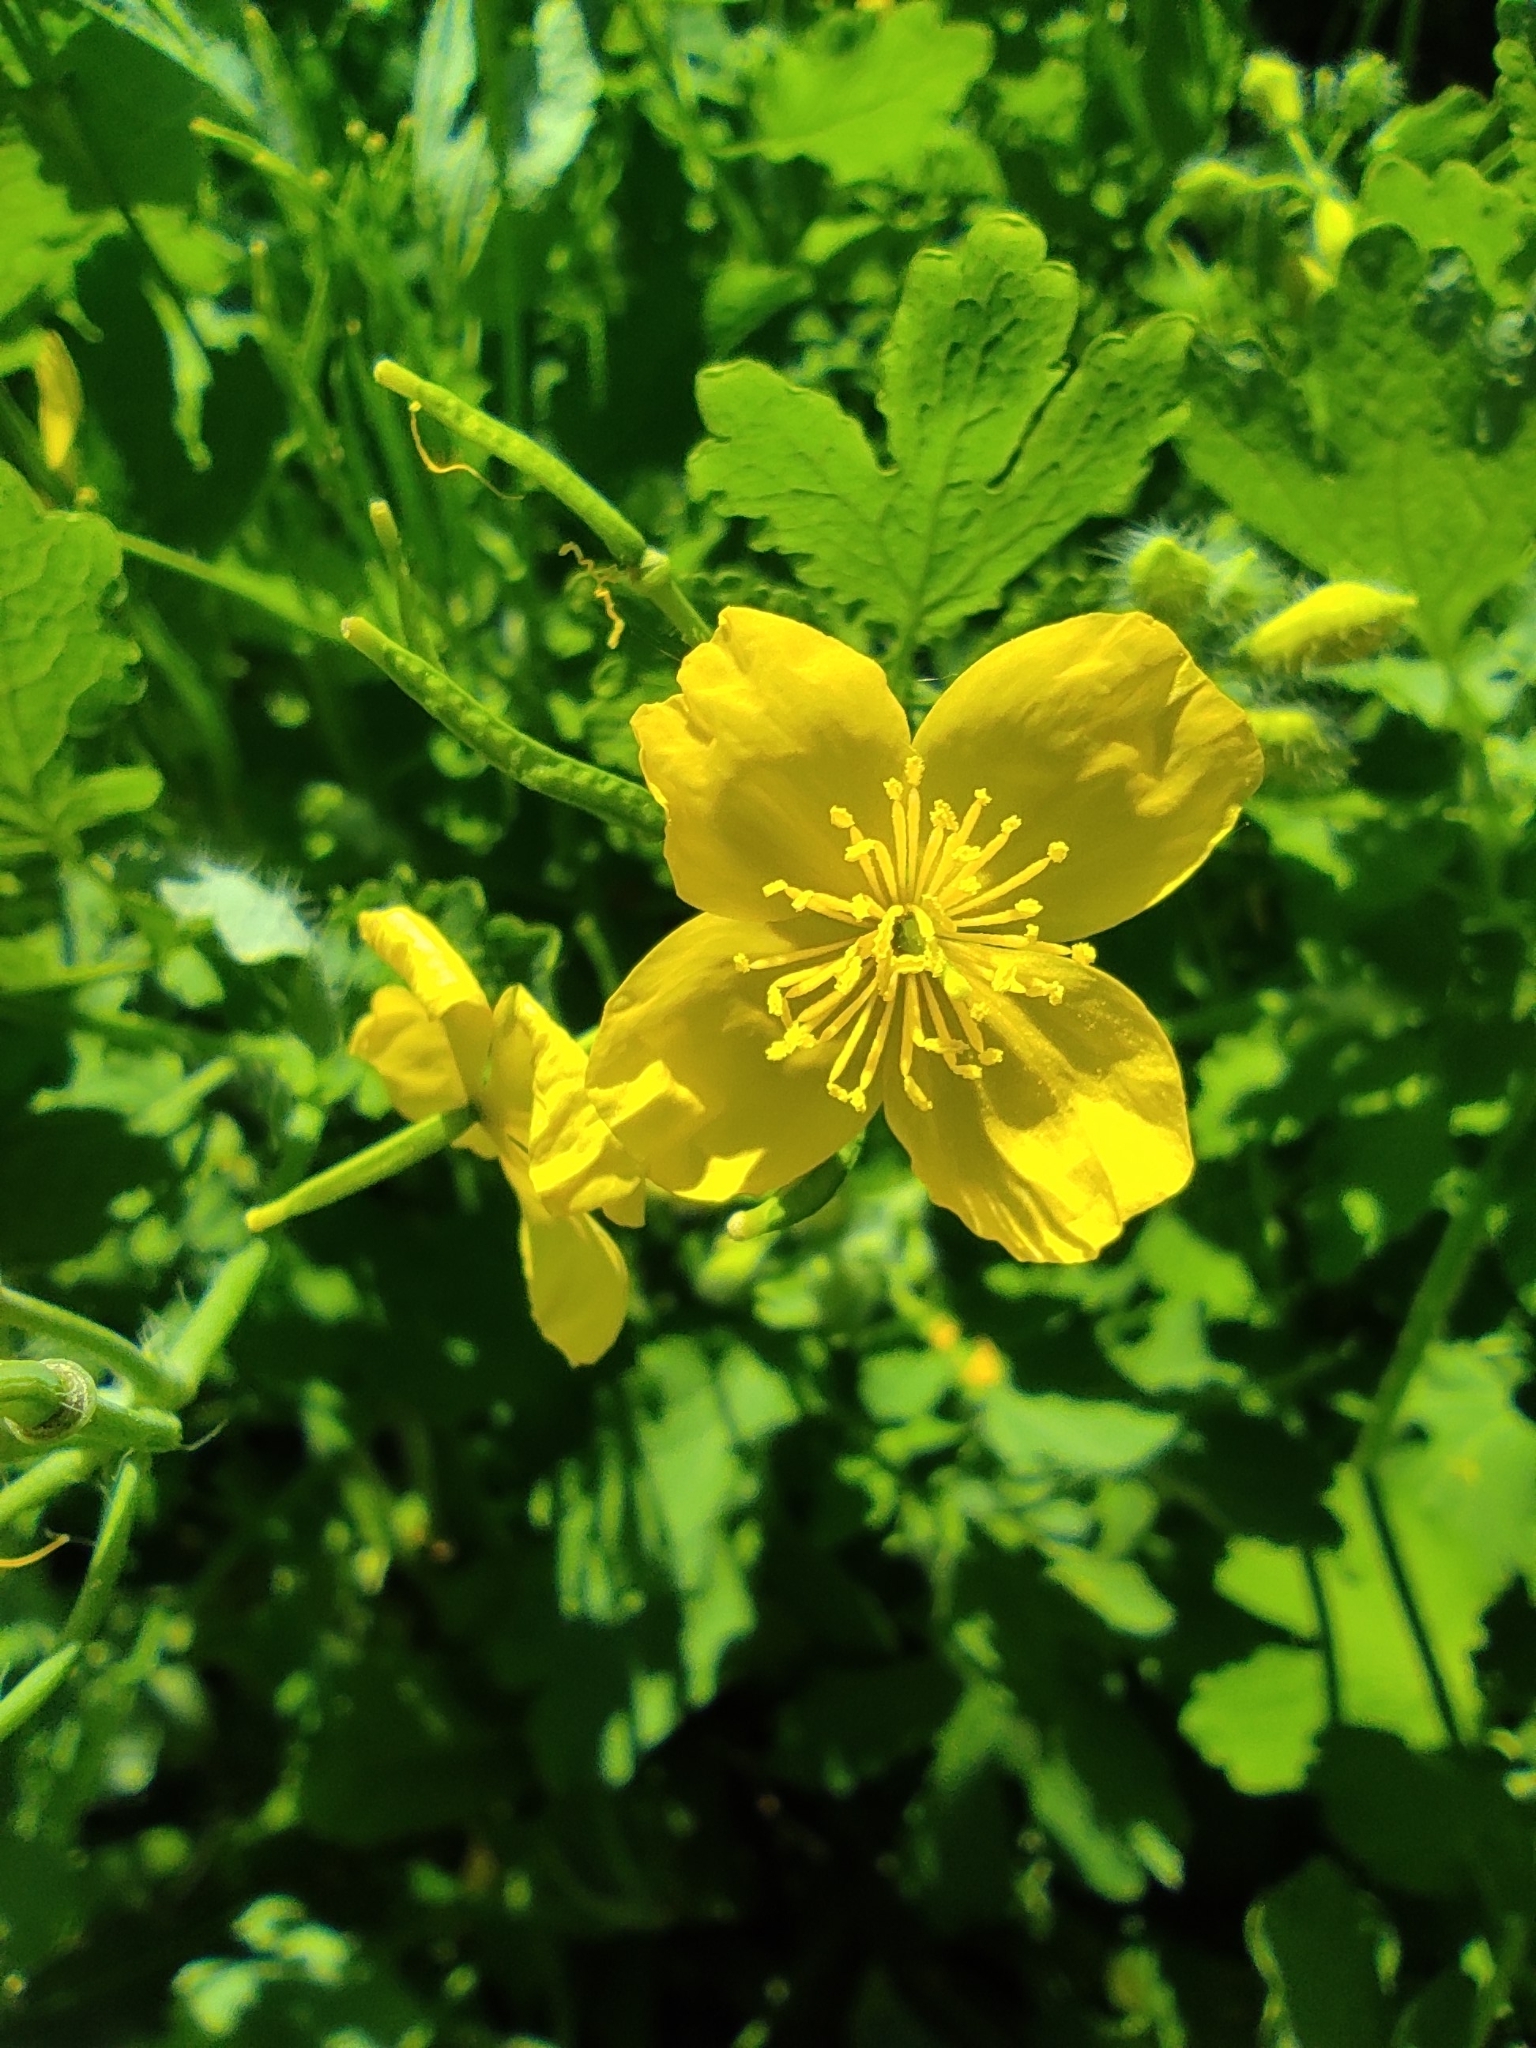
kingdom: Plantae
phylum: Tracheophyta
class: Magnoliopsida
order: Ranunculales
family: Papaveraceae
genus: Chelidonium
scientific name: Chelidonium majus
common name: Greater celandine
